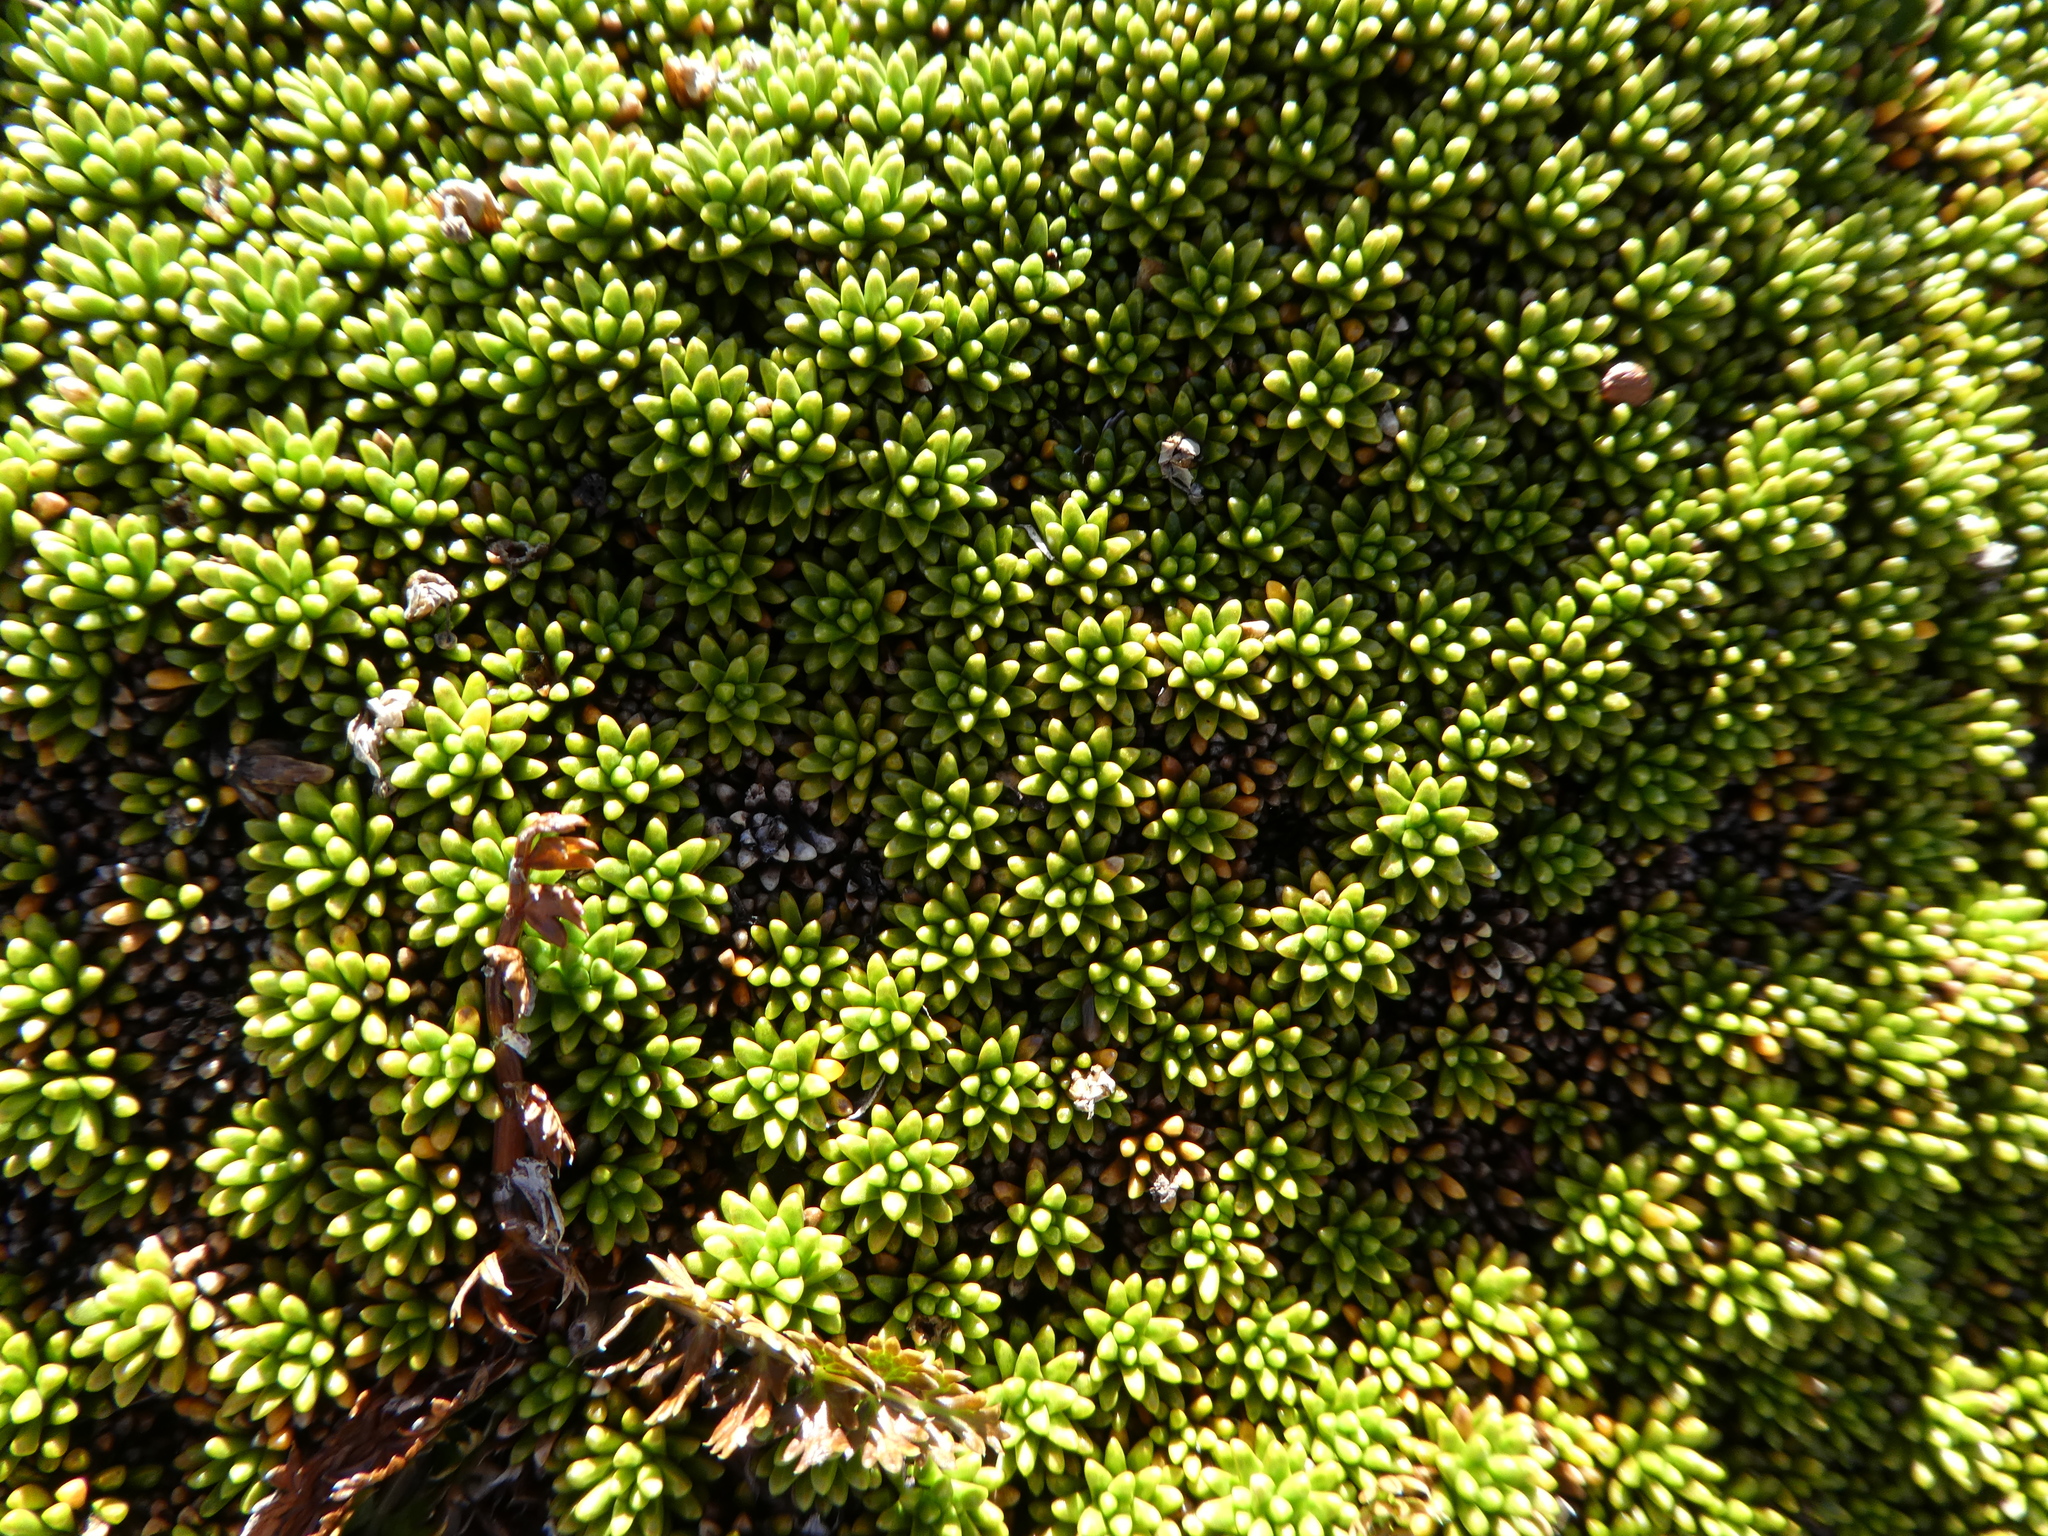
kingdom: Plantae
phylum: Tracheophyta
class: Magnoliopsida
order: Asterales
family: Stylidiaceae
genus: Phyllachne
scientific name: Phyllachne colensoi
